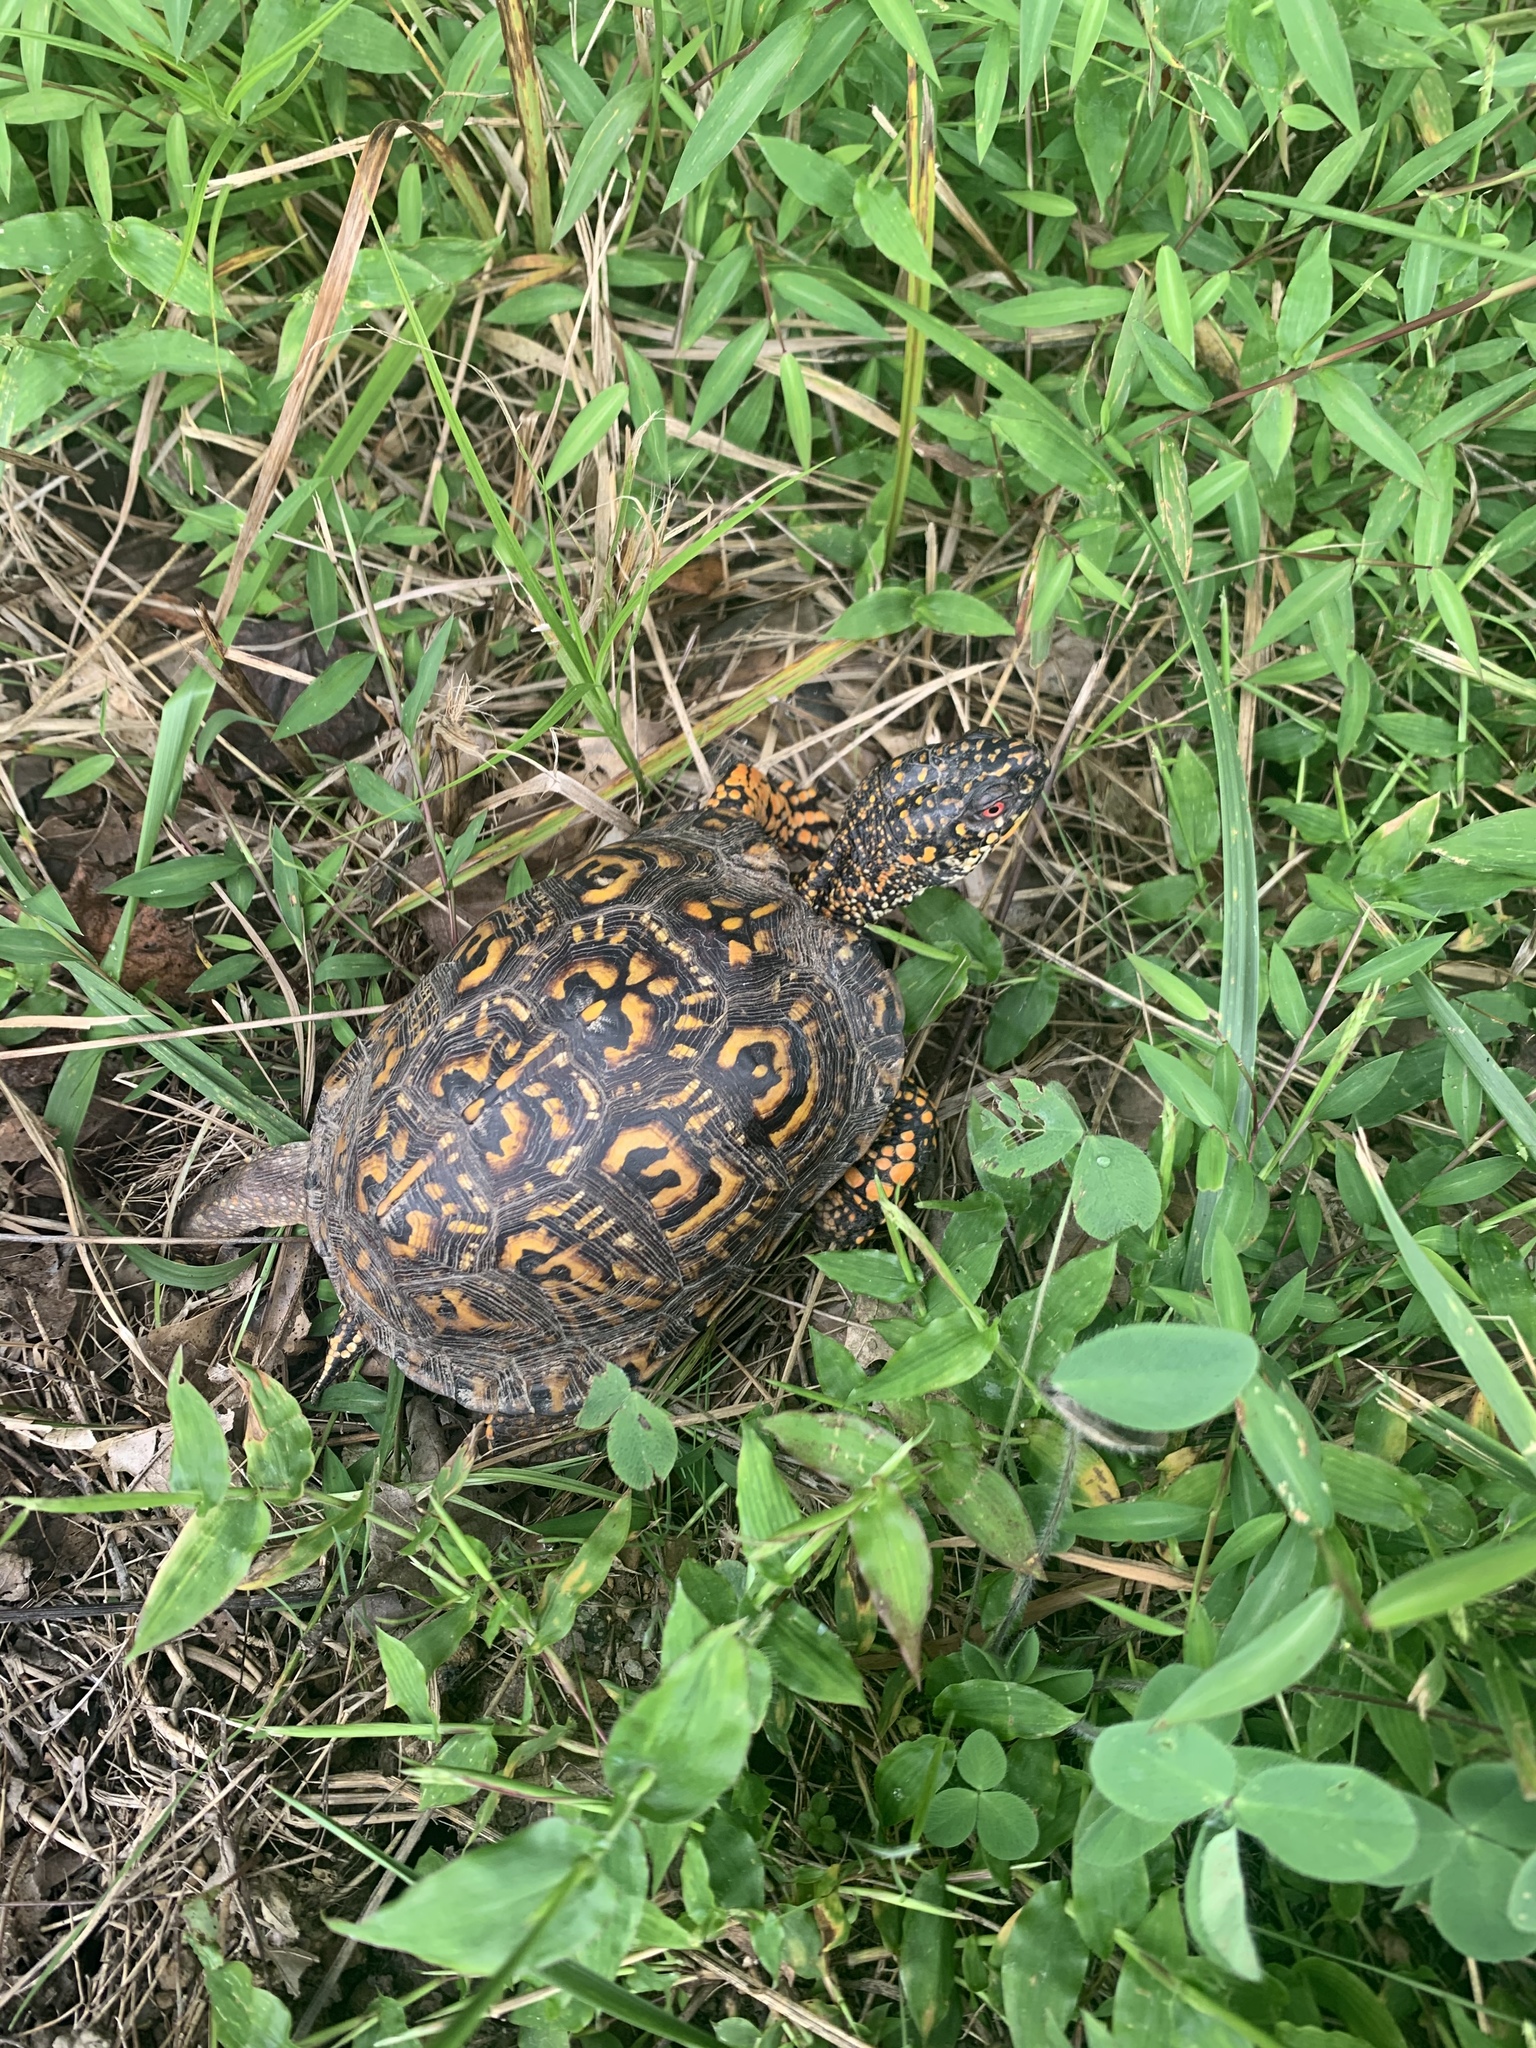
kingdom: Animalia
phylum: Chordata
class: Testudines
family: Emydidae
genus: Terrapene
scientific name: Terrapene carolina
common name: Common box turtle
